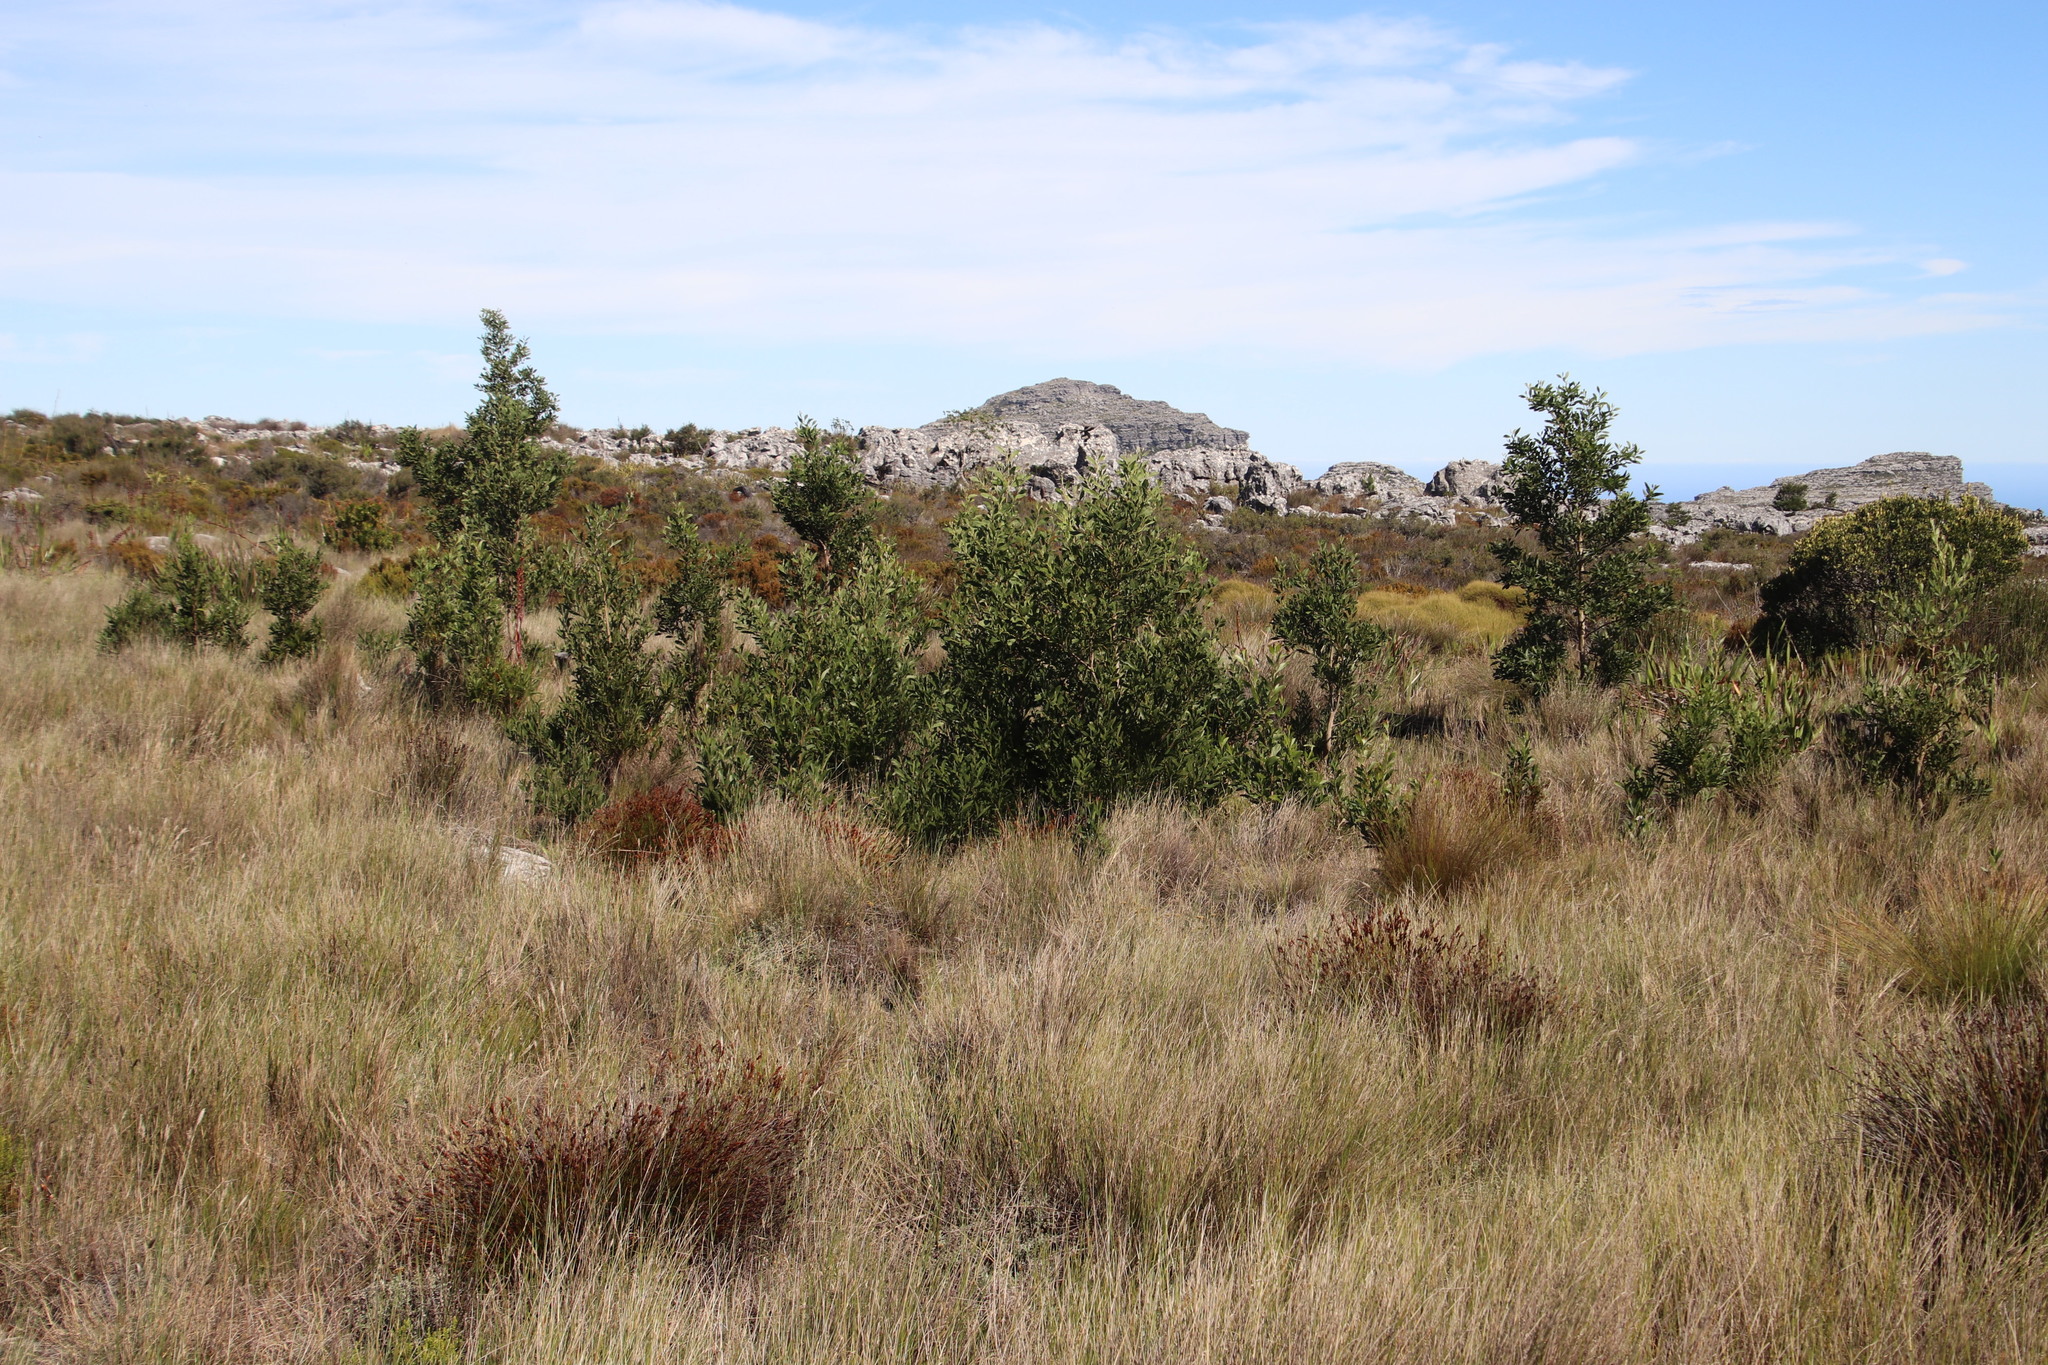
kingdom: Plantae
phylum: Tracheophyta
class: Magnoliopsida
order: Fabales
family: Fabaceae
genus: Acacia
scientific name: Acacia melanoxylon
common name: Blackwood
